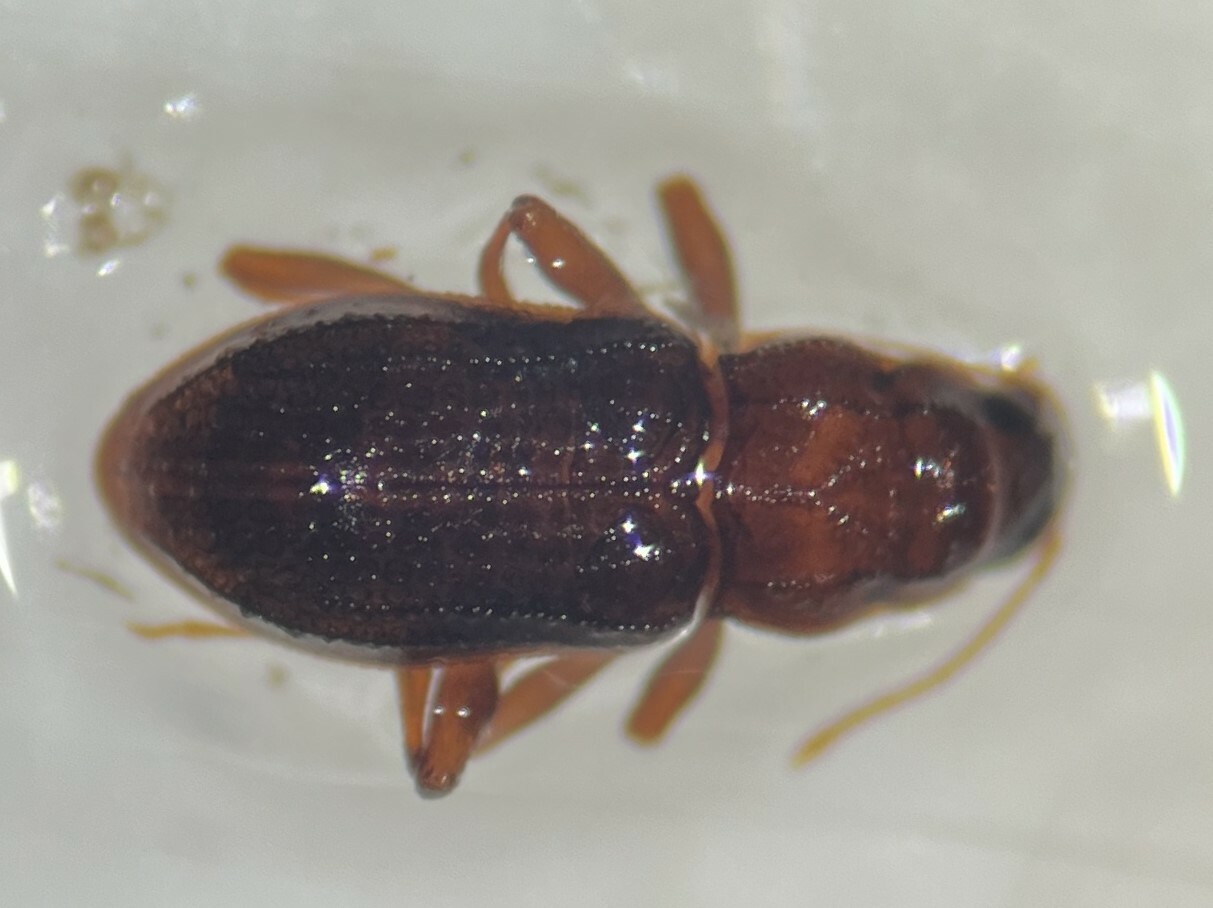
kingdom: Animalia
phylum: Arthropoda
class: Insecta
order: Coleoptera
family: Elmidae
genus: Microcylloepus
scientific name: Microcylloepus pusillus
